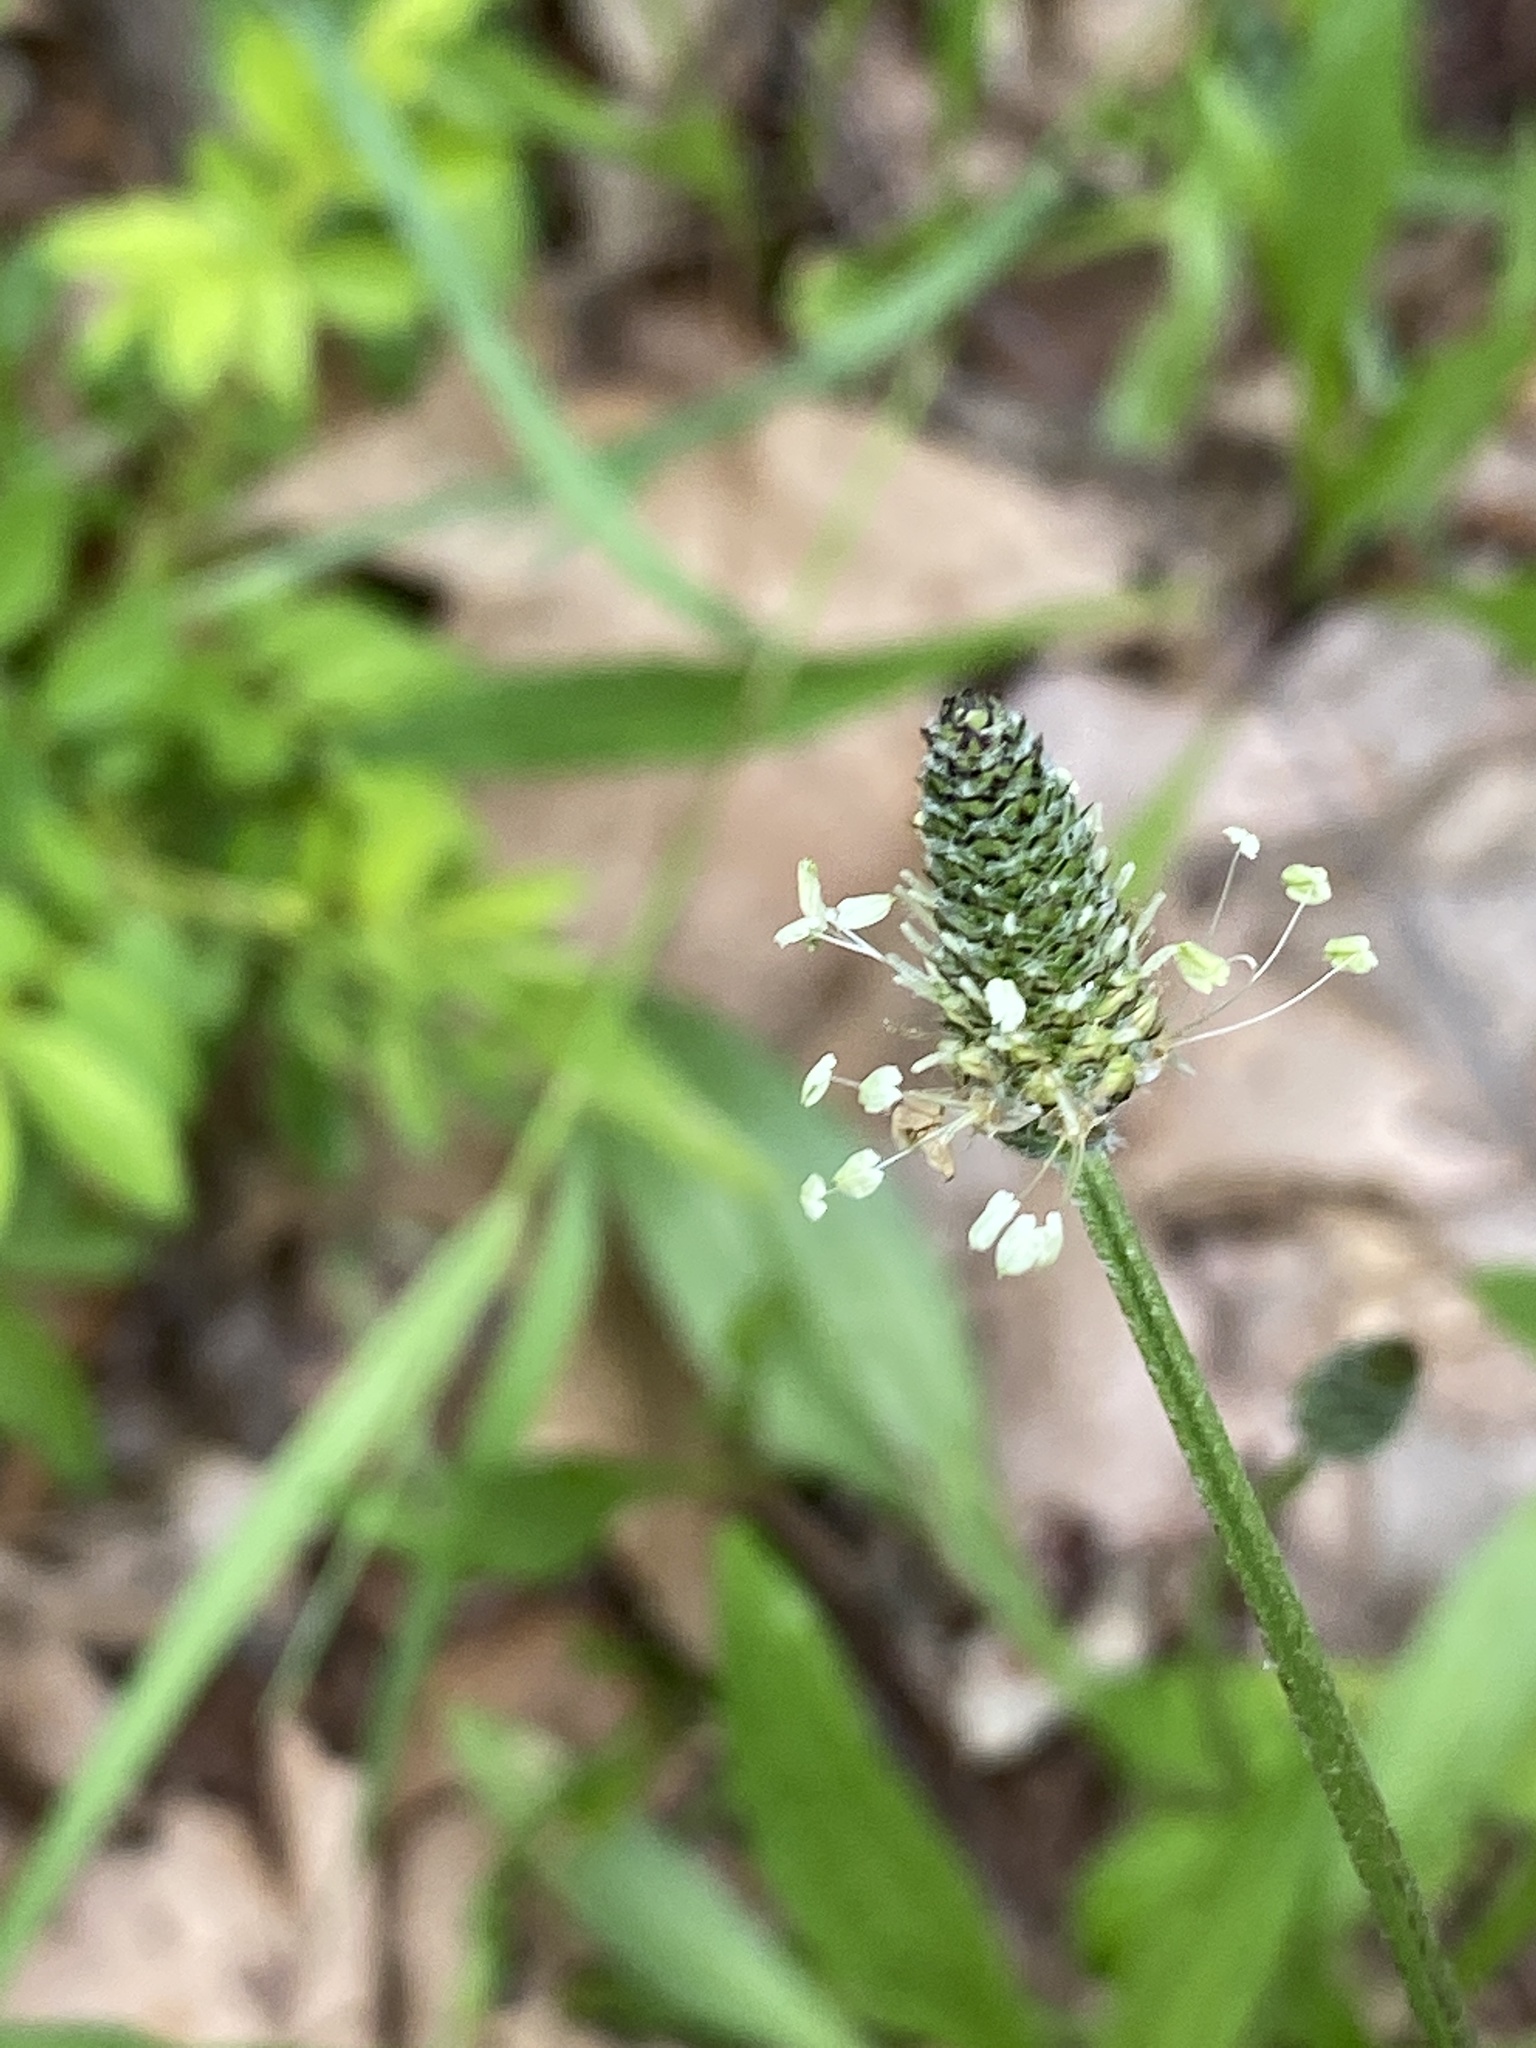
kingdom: Plantae
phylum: Tracheophyta
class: Magnoliopsida
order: Lamiales
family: Plantaginaceae
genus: Plantago
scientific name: Plantago lanceolata
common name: Ribwort plantain
